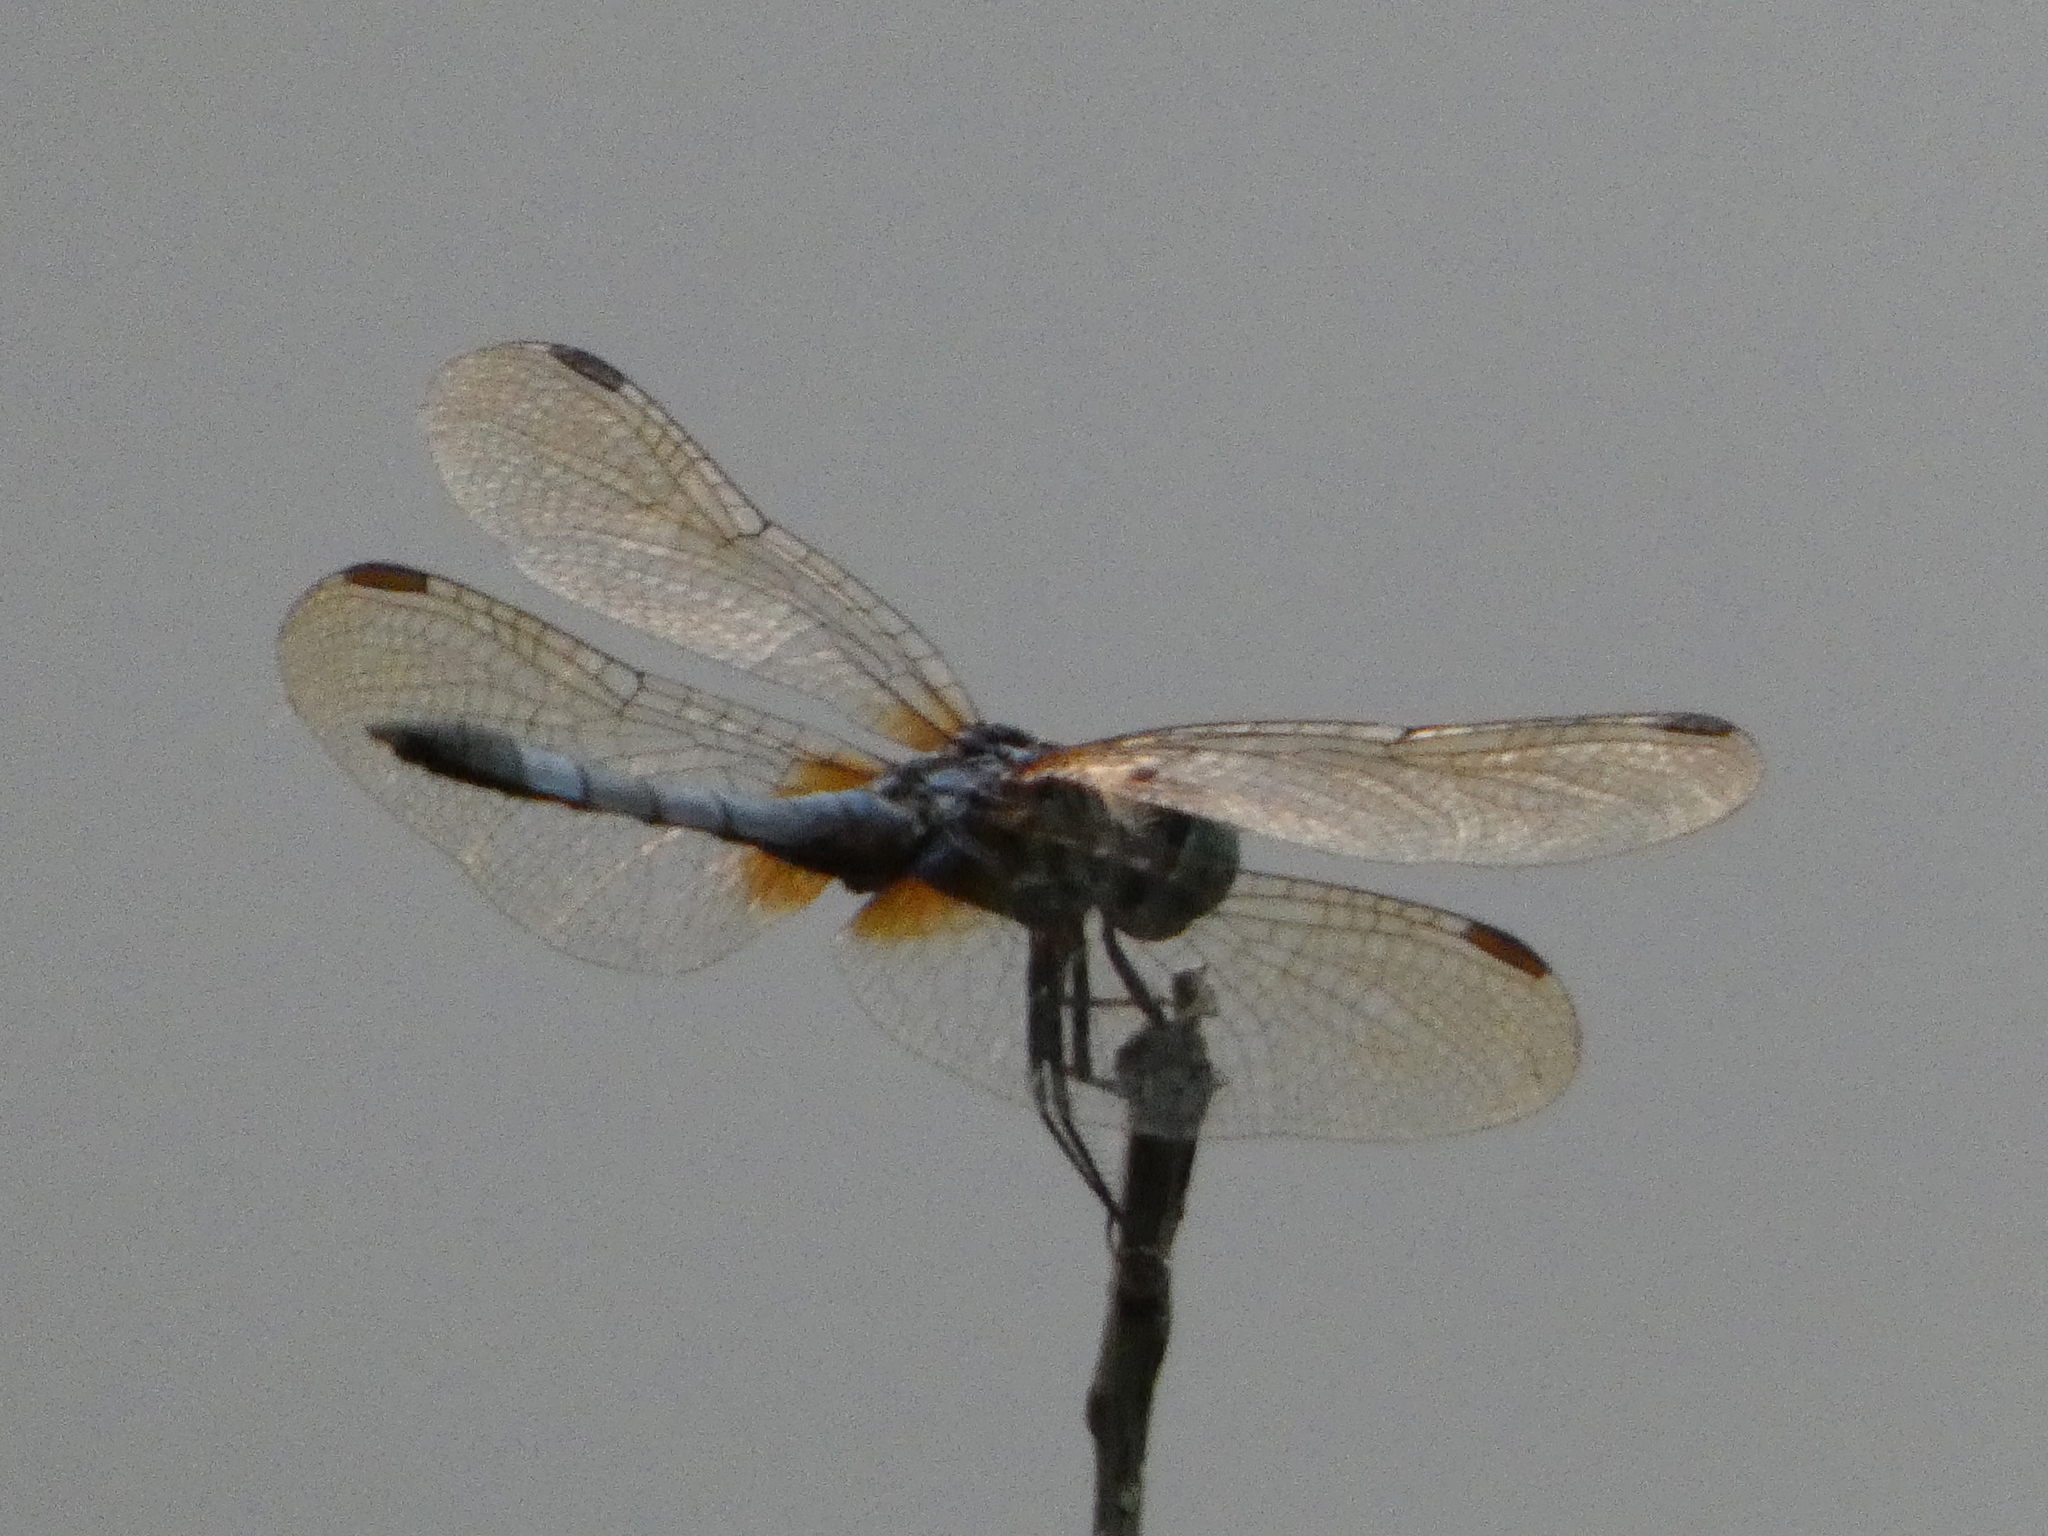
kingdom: Animalia
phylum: Arthropoda
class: Insecta
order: Odonata
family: Libellulidae
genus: Pachydiplax
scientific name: Pachydiplax longipennis
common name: Blue dasher
